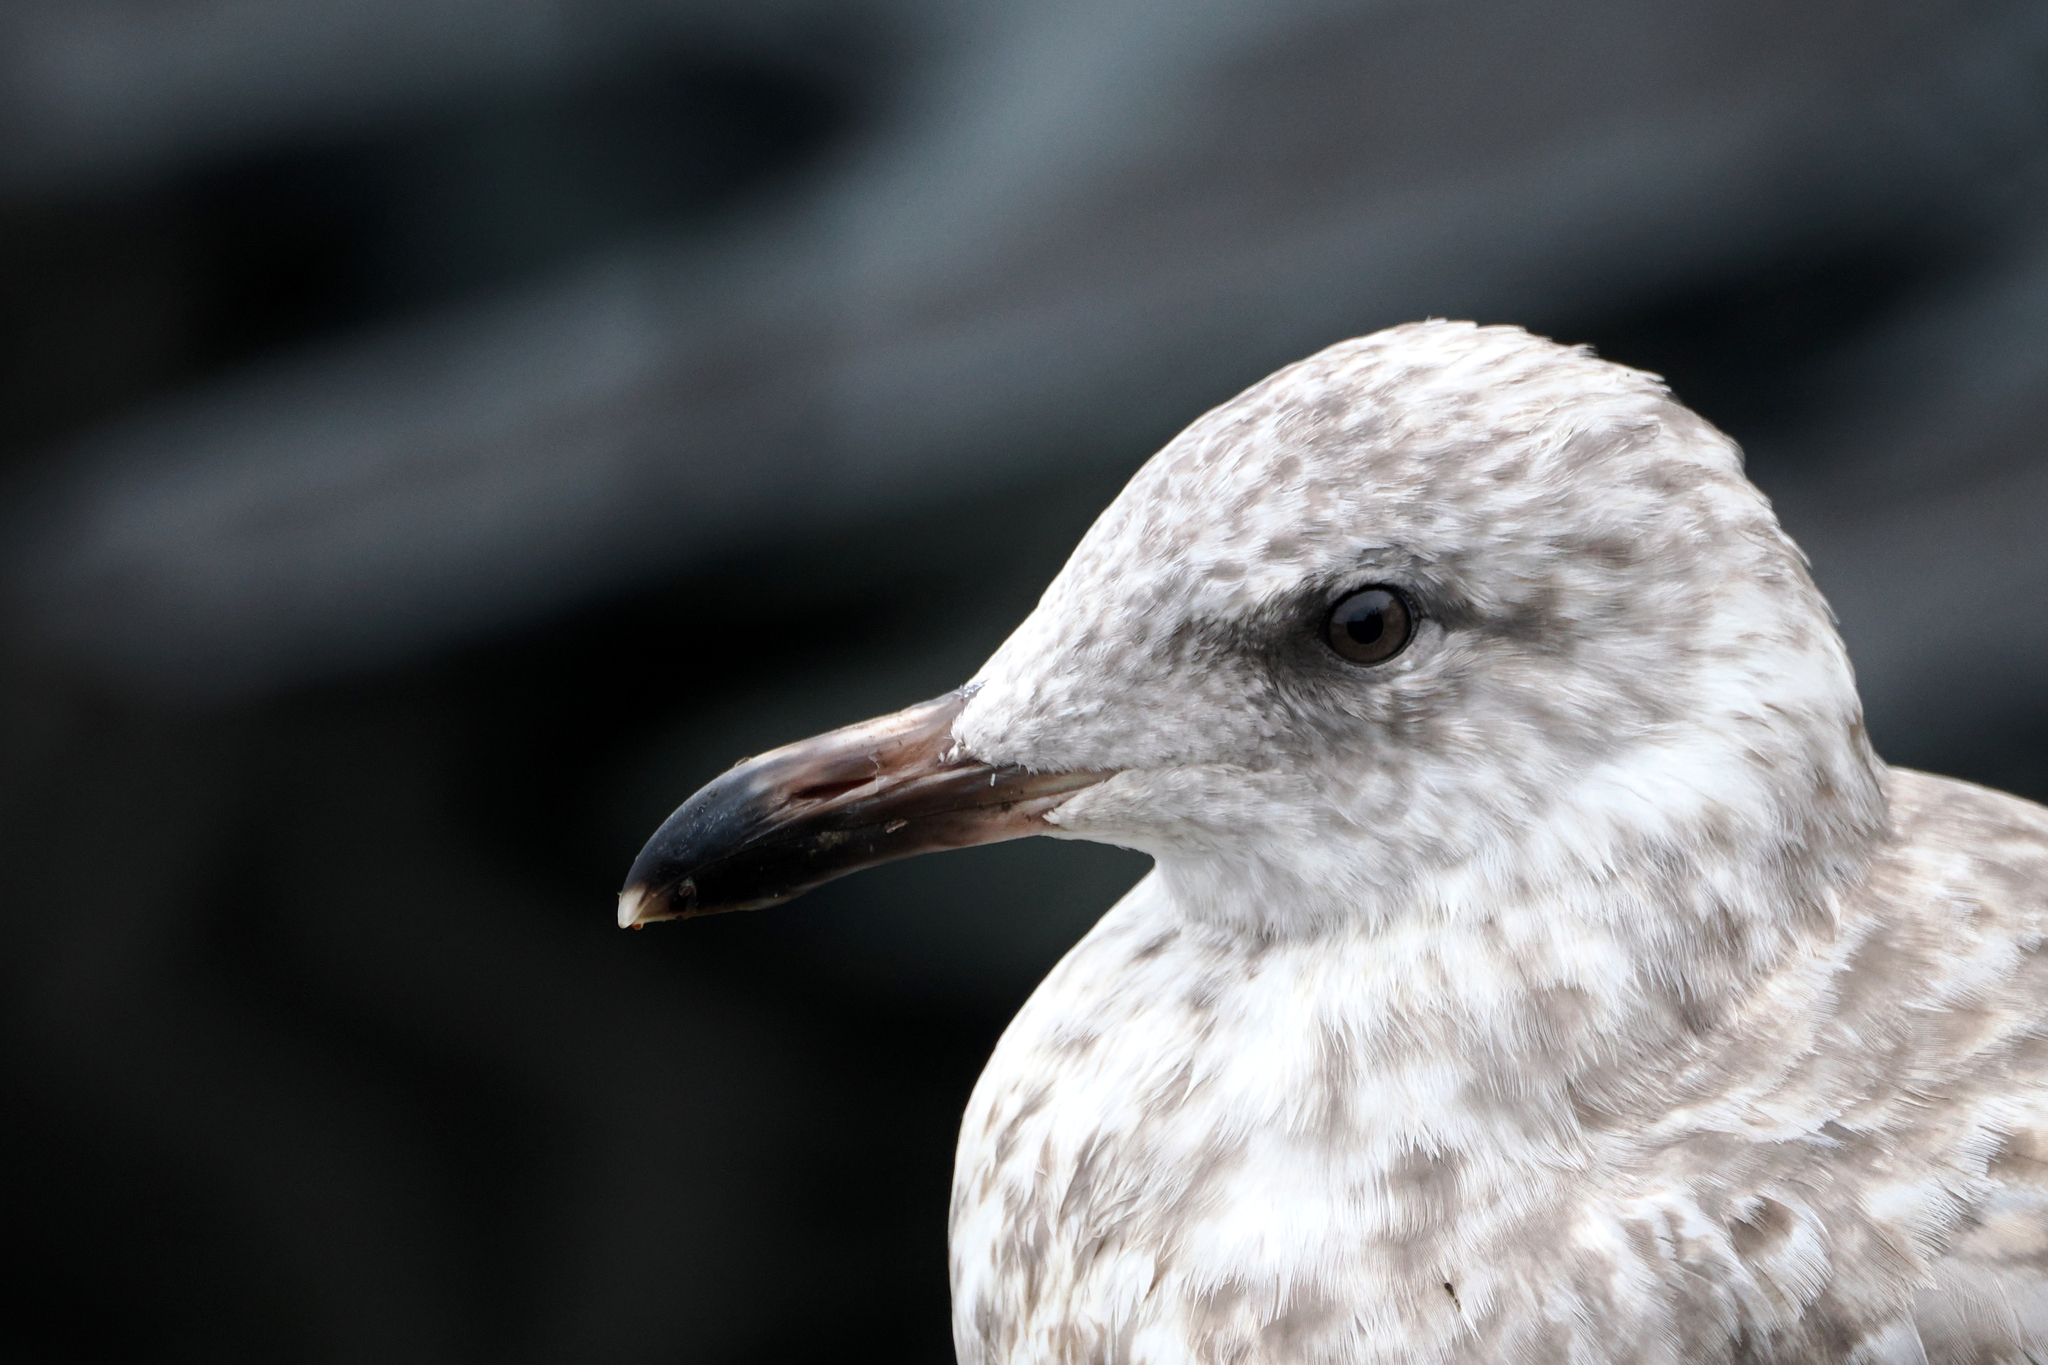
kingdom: Animalia
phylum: Chordata
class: Aves
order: Charadriiformes
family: Laridae
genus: Larus
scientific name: Larus argentatus
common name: Herring gull
